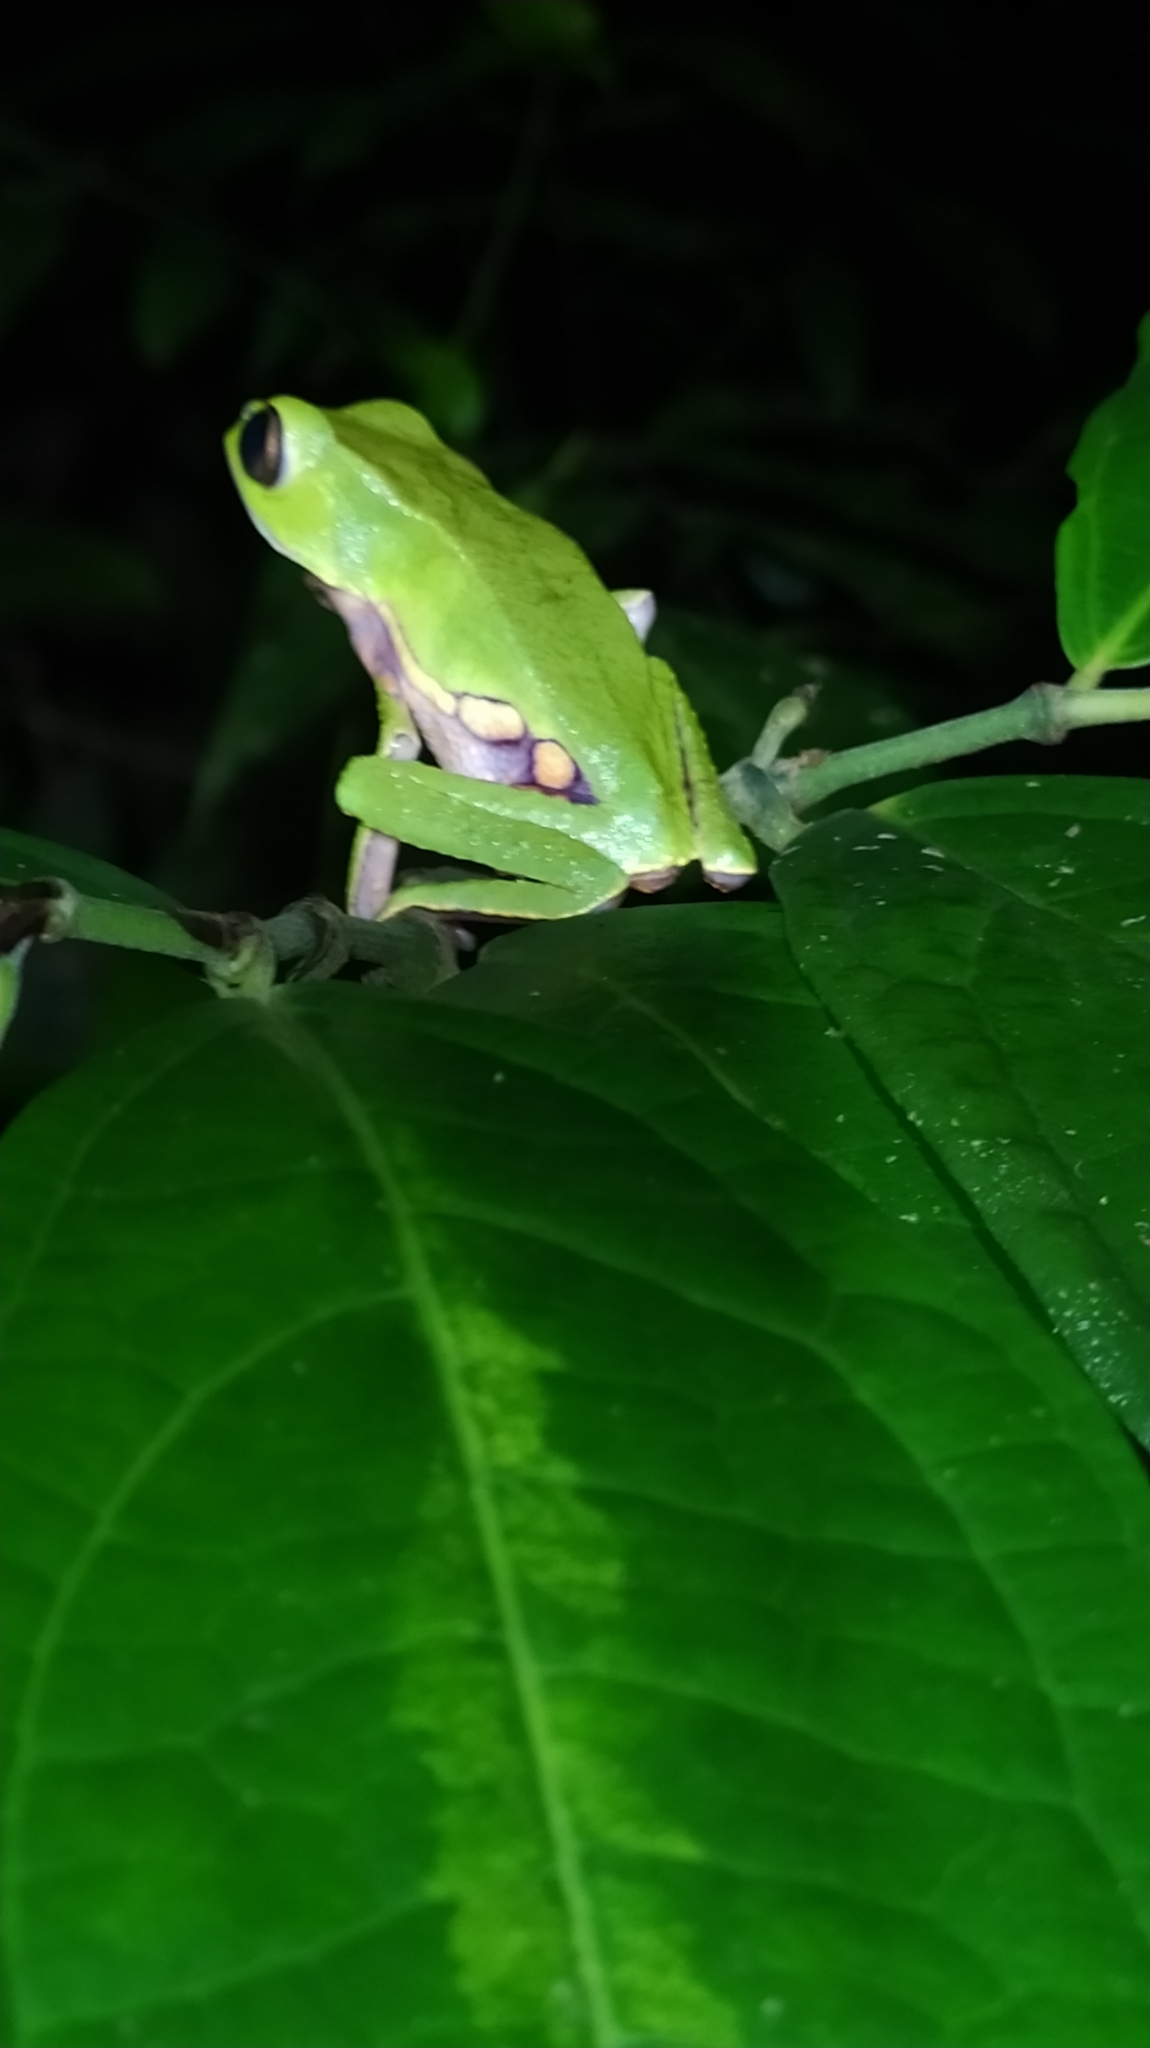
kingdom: Animalia
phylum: Chordata
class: Amphibia
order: Anura
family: Phyllomedusidae
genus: Phyllomedusa
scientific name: Phyllomedusa vaillantii
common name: White-lined leaf frog
